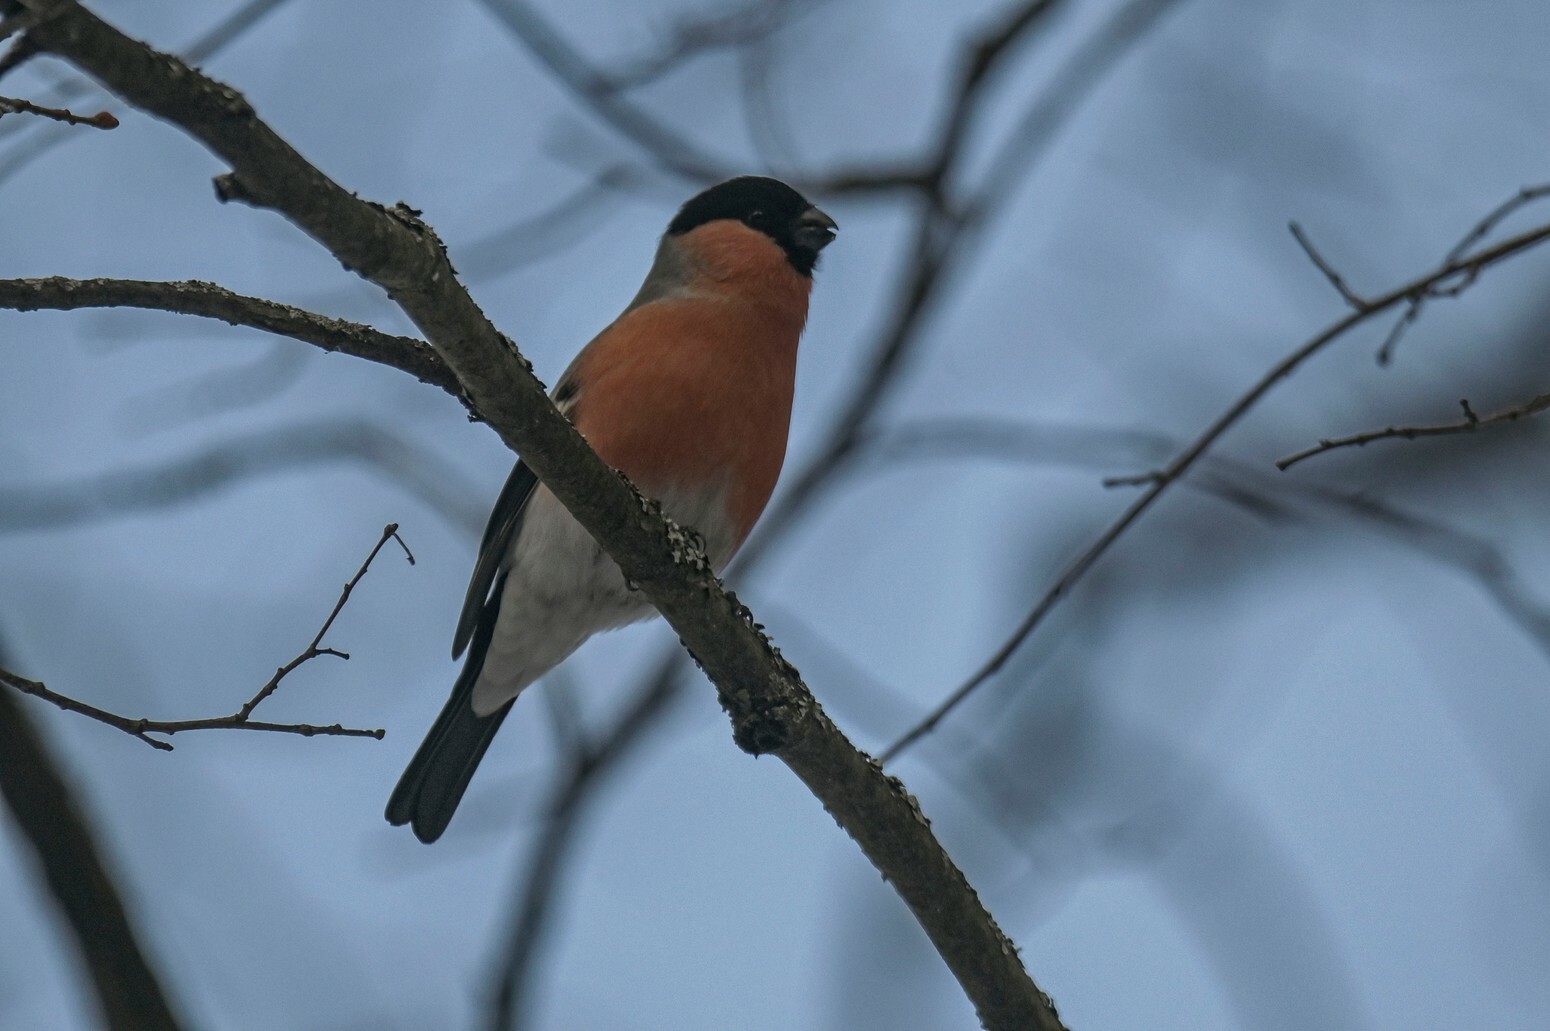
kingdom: Animalia
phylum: Chordata
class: Aves
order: Passeriformes
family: Fringillidae
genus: Pyrrhula
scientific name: Pyrrhula pyrrhula
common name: Eurasian bullfinch
